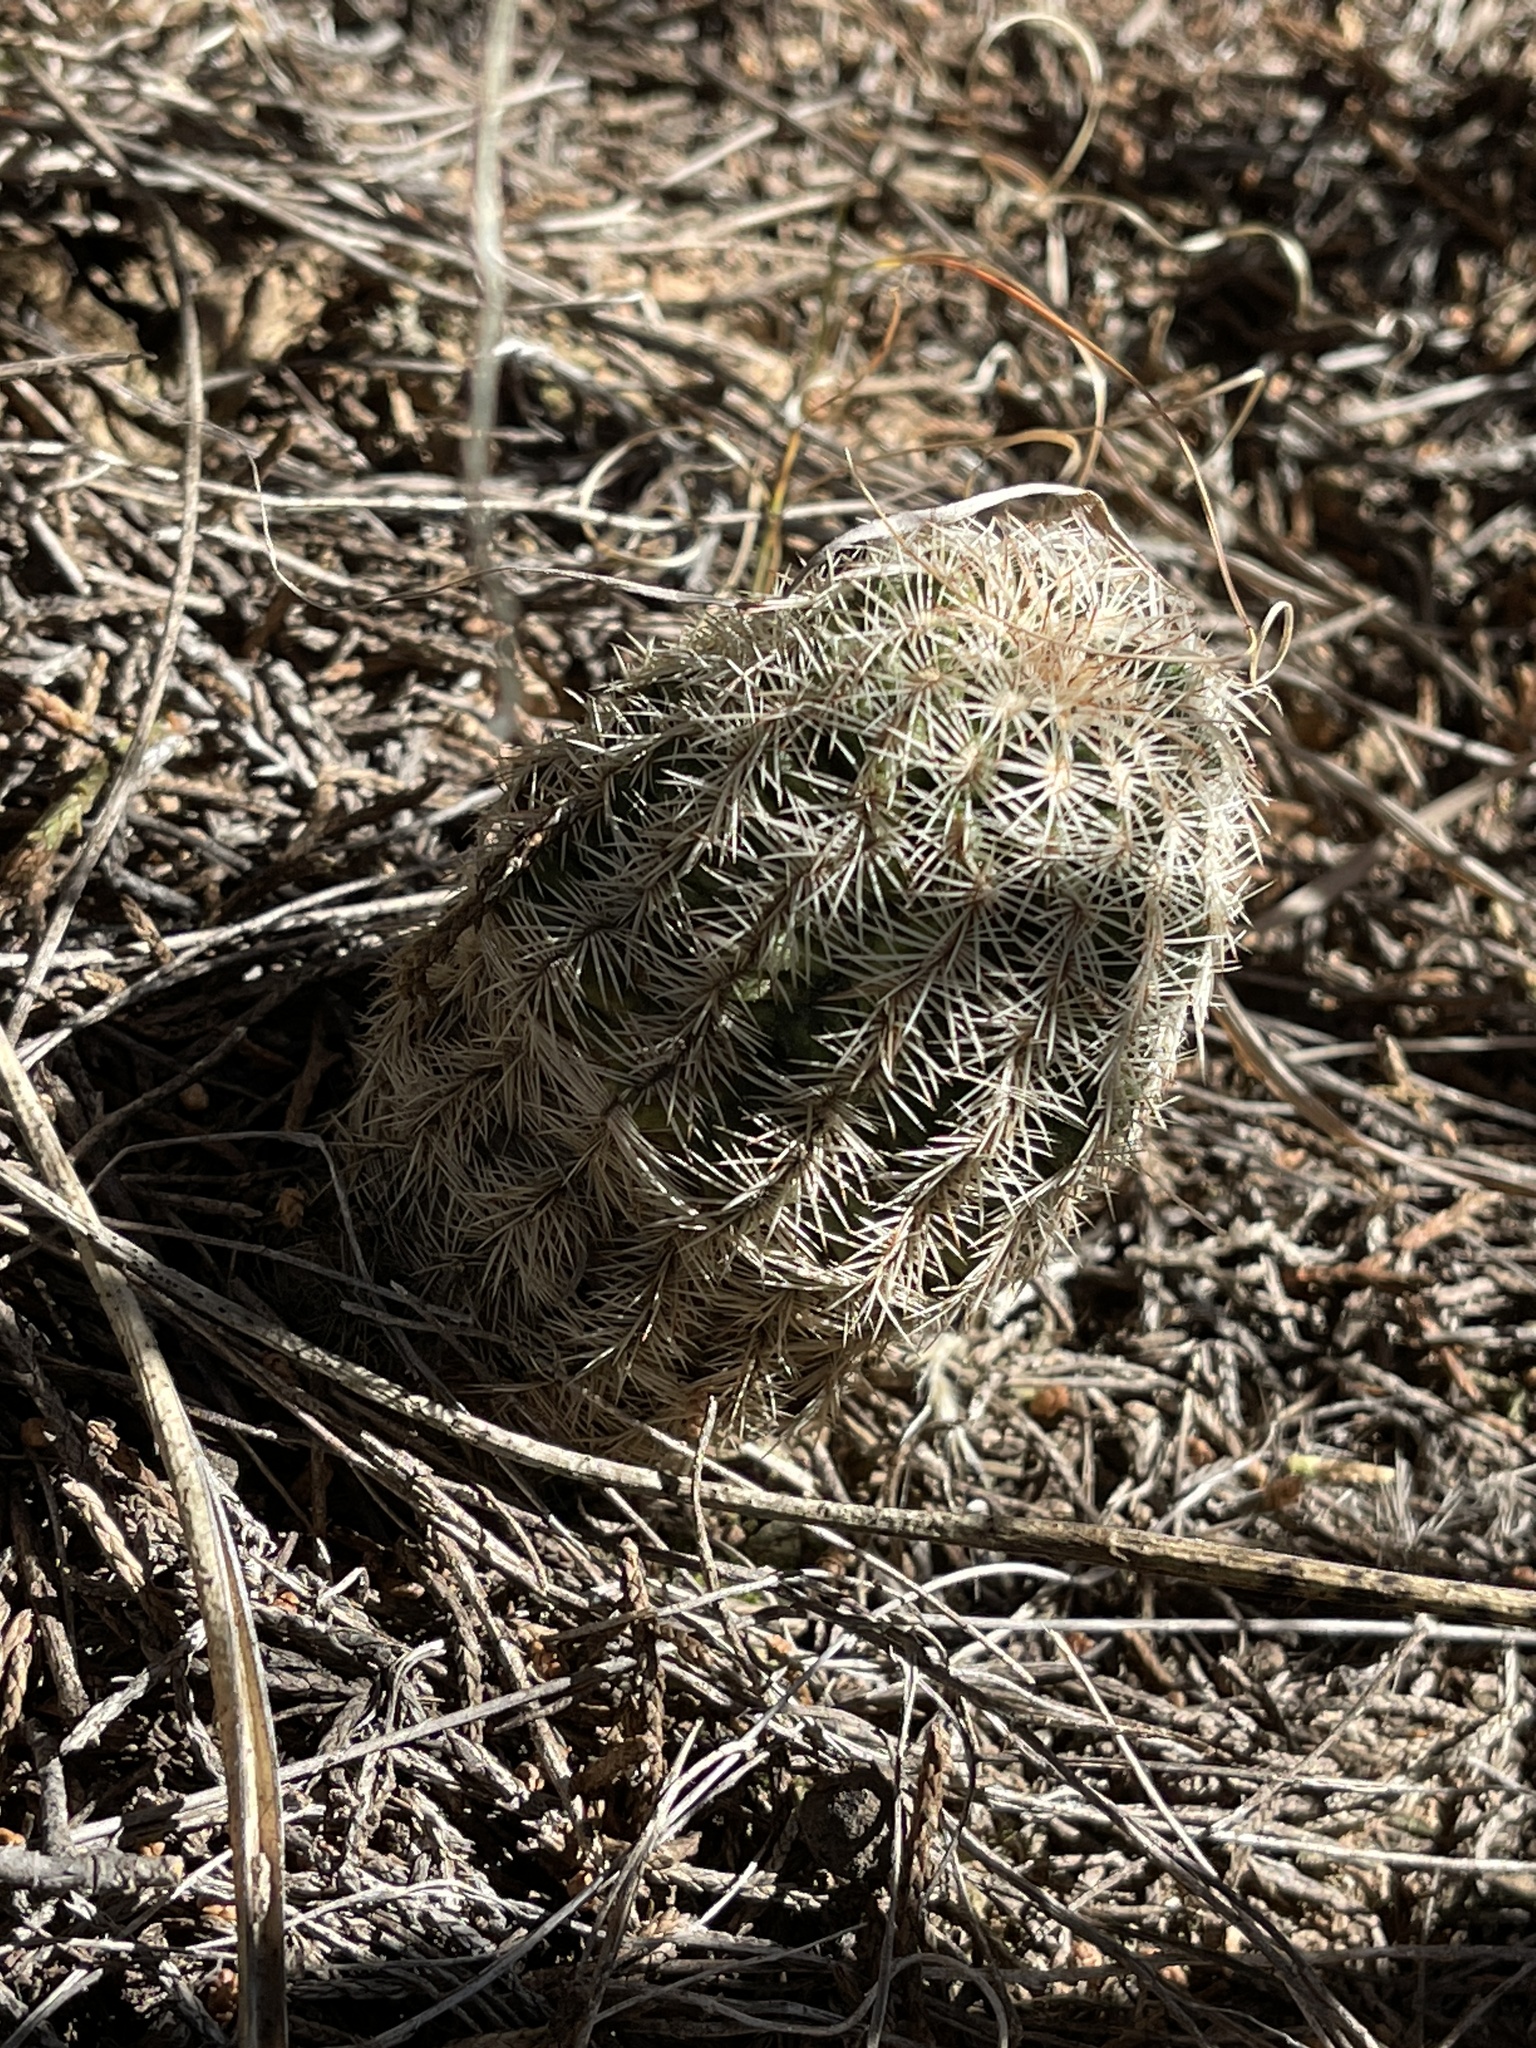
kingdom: Plantae
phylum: Tracheophyta
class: Magnoliopsida
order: Caryophyllales
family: Cactaceae
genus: Echinocereus
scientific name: Echinocereus reichenbachii
